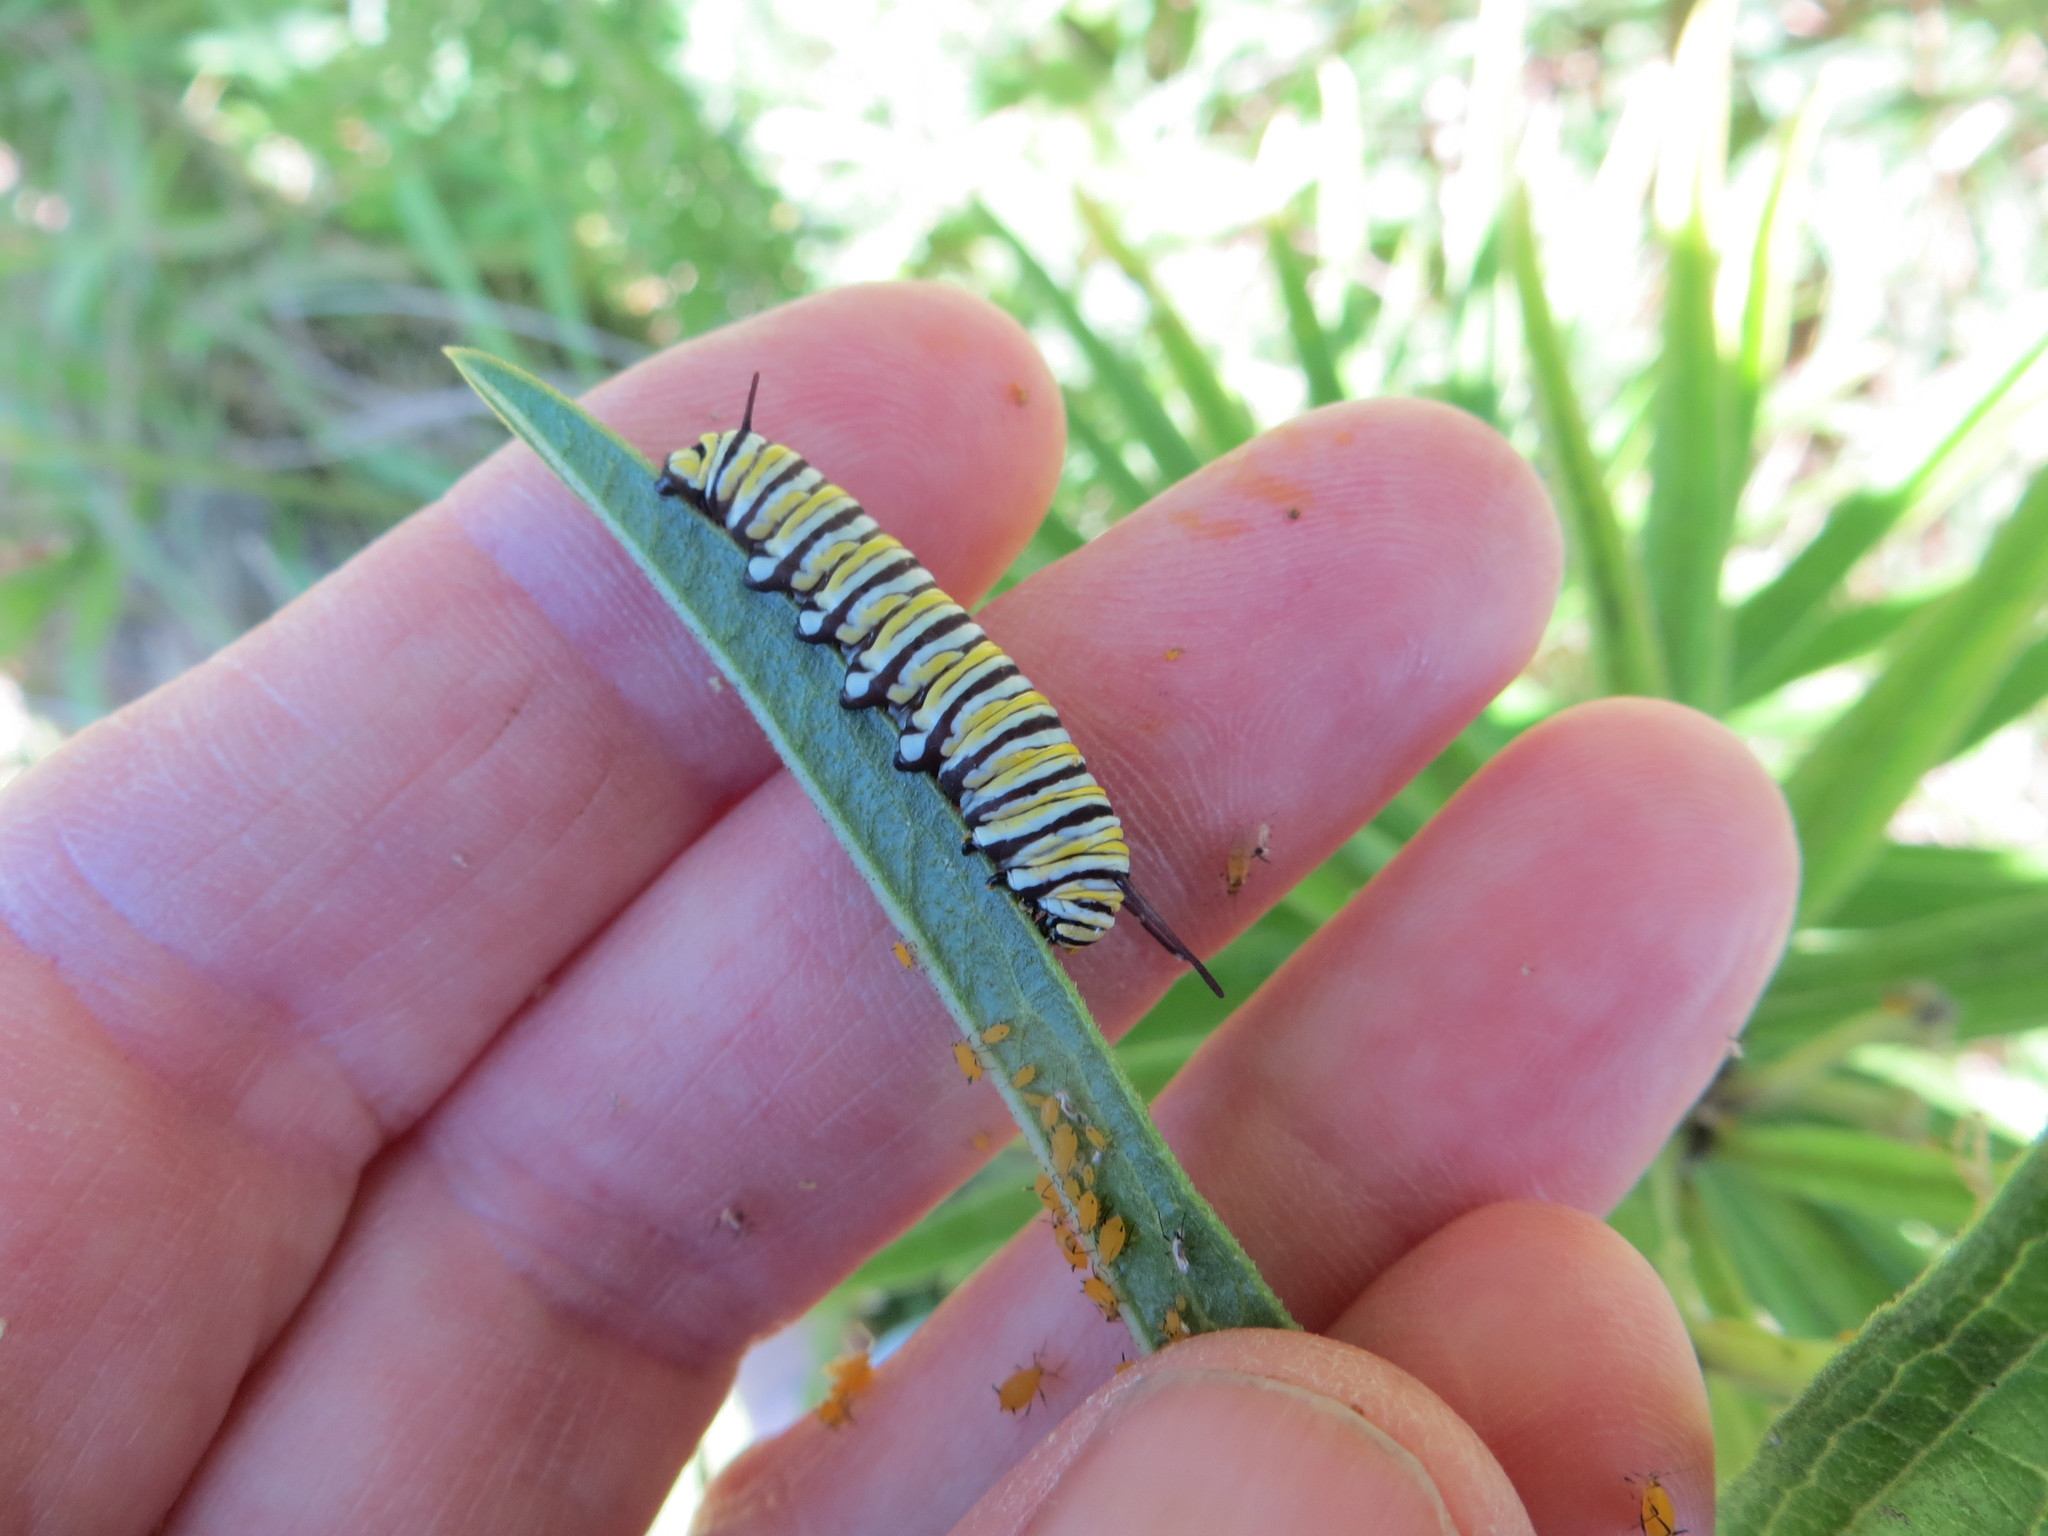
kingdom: Animalia
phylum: Arthropoda
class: Insecta
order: Lepidoptera
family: Nymphalidae
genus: Danaus
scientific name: Danaus plexippus
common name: Monarch
